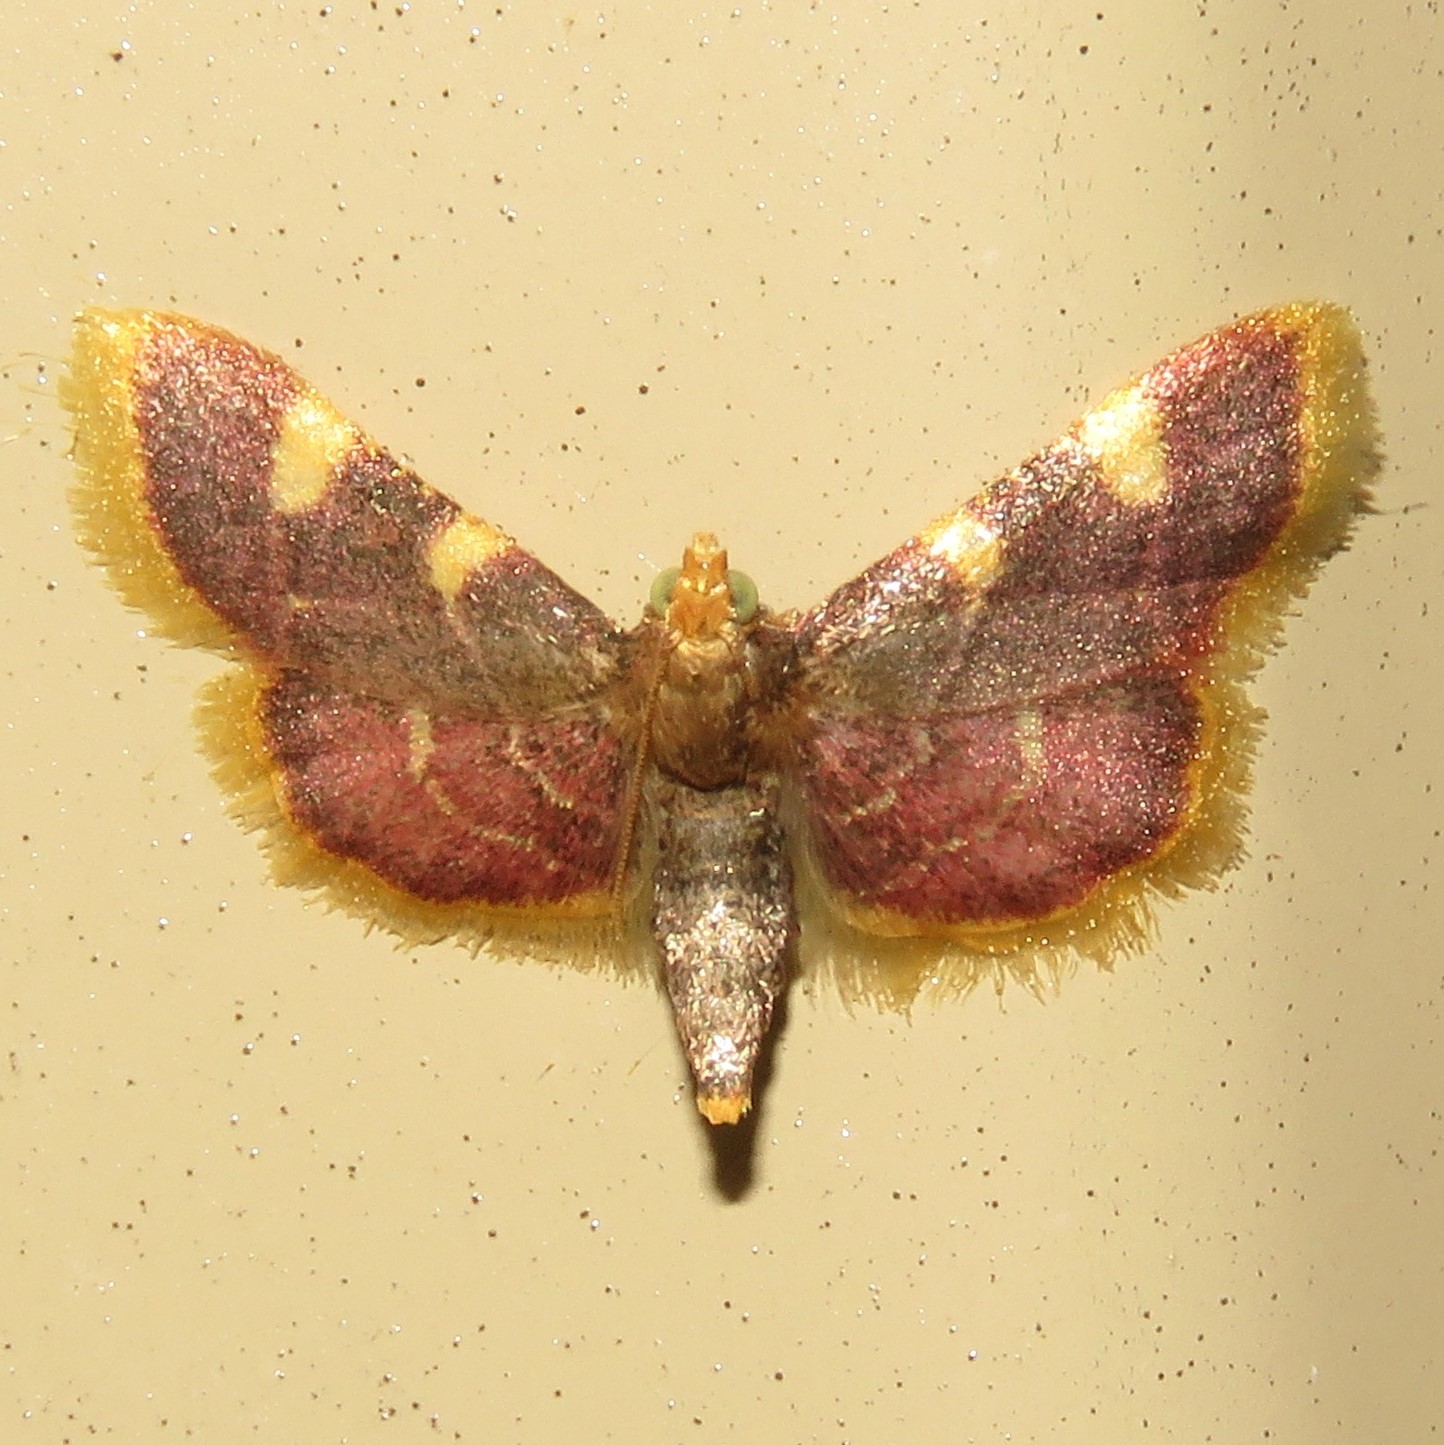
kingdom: Animalia
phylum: Arthropoda
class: Insecta
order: Lepidoptera
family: Pyralidae
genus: Hypsopygia
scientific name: Hypsopygia costalis
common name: Gold triangle
